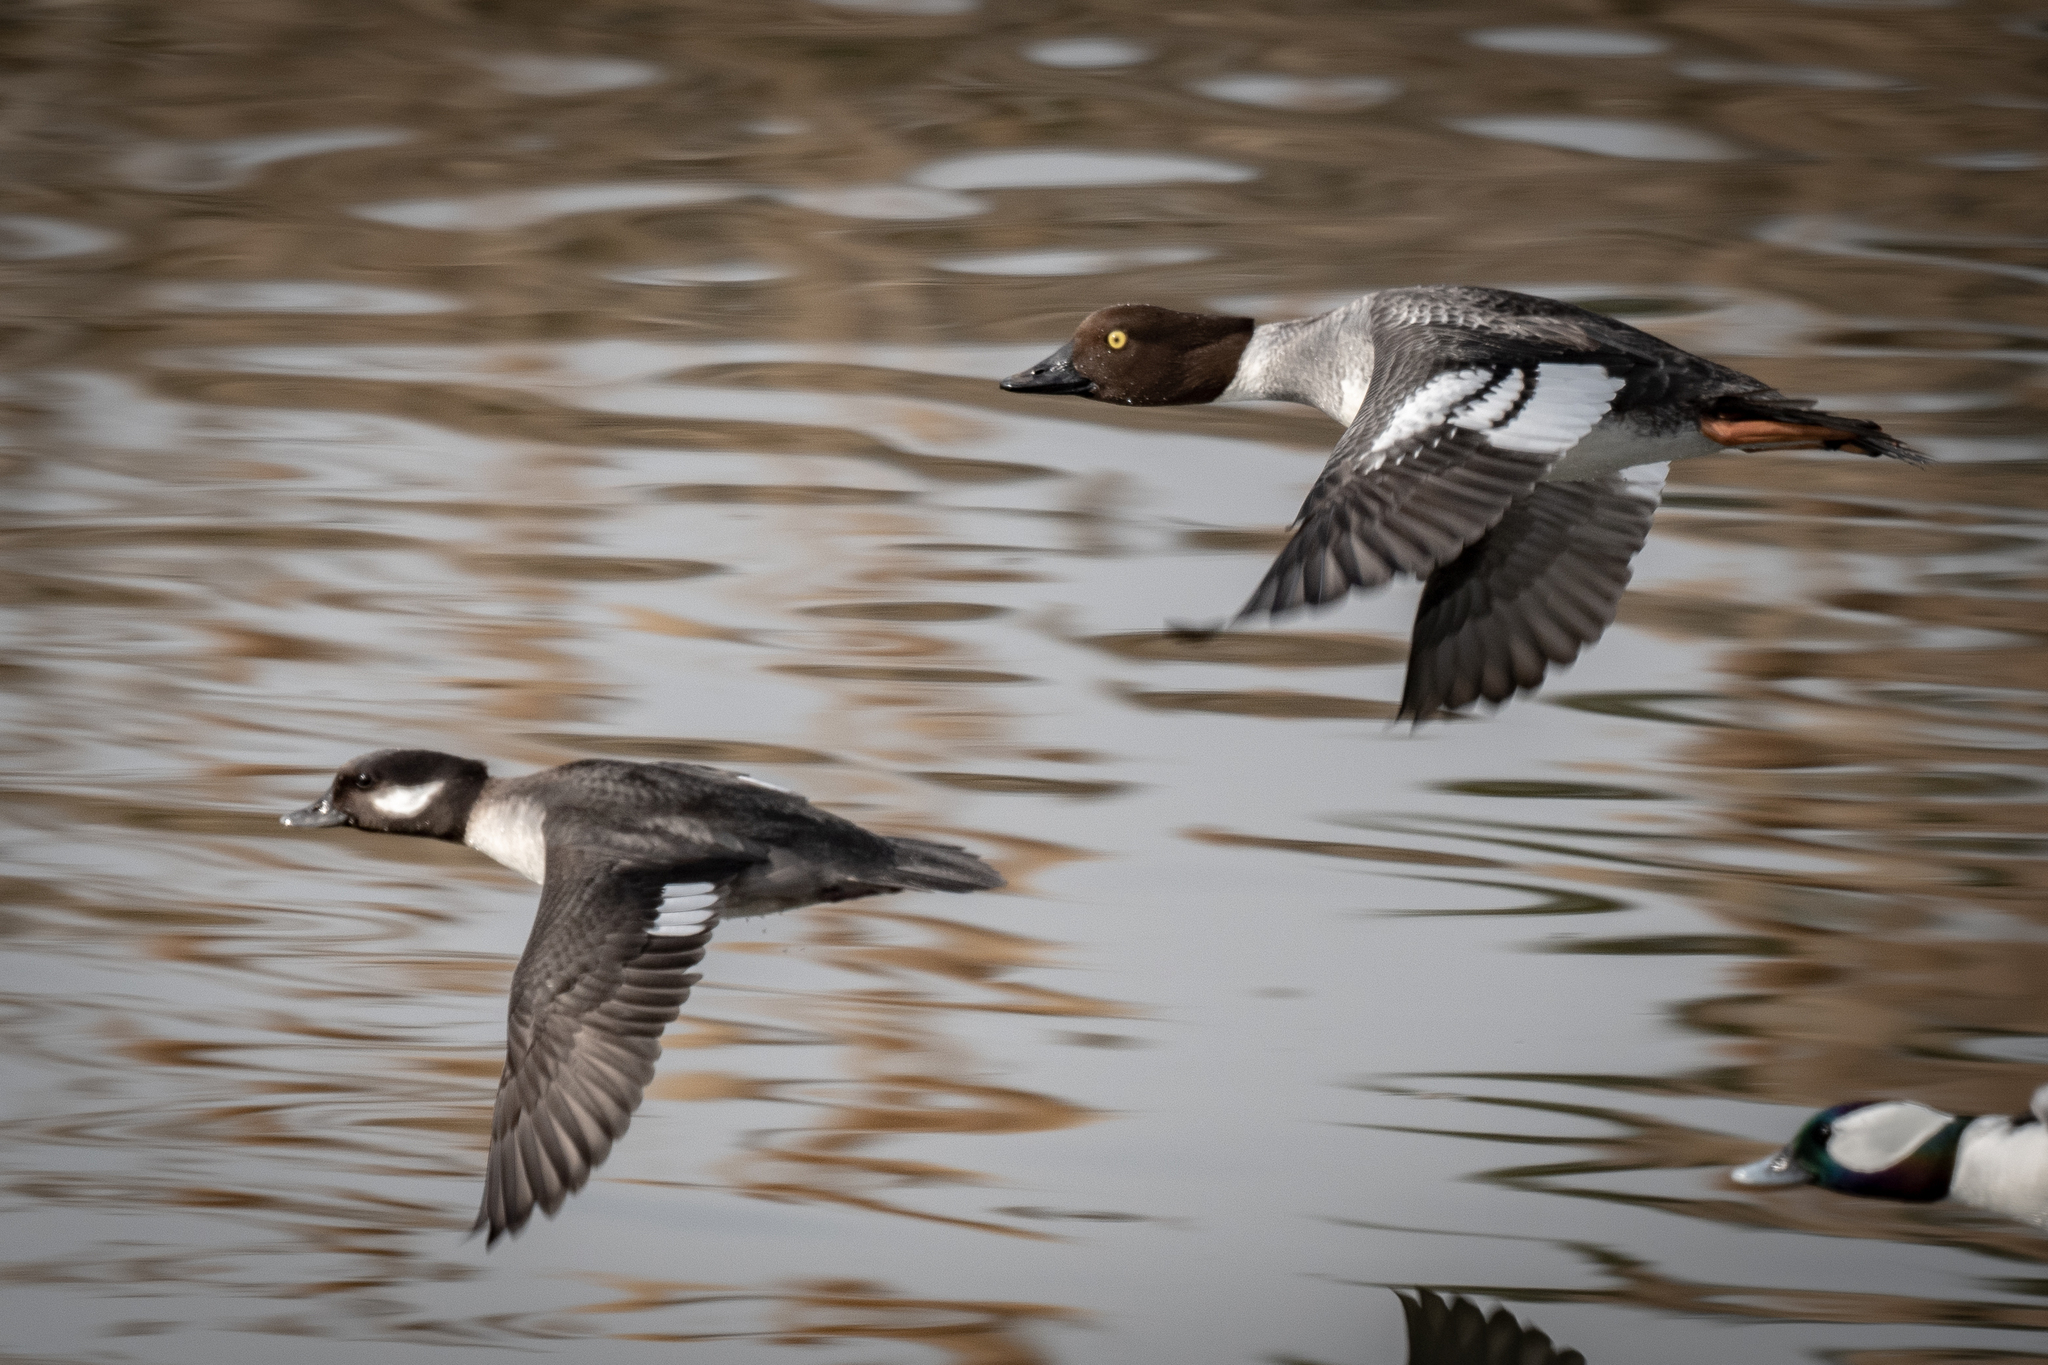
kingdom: Animalia
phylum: Chordata
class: Aves
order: Anseriformes
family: Anatidae
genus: Bucephala
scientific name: Bucephala clangula
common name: Common goldeneye
